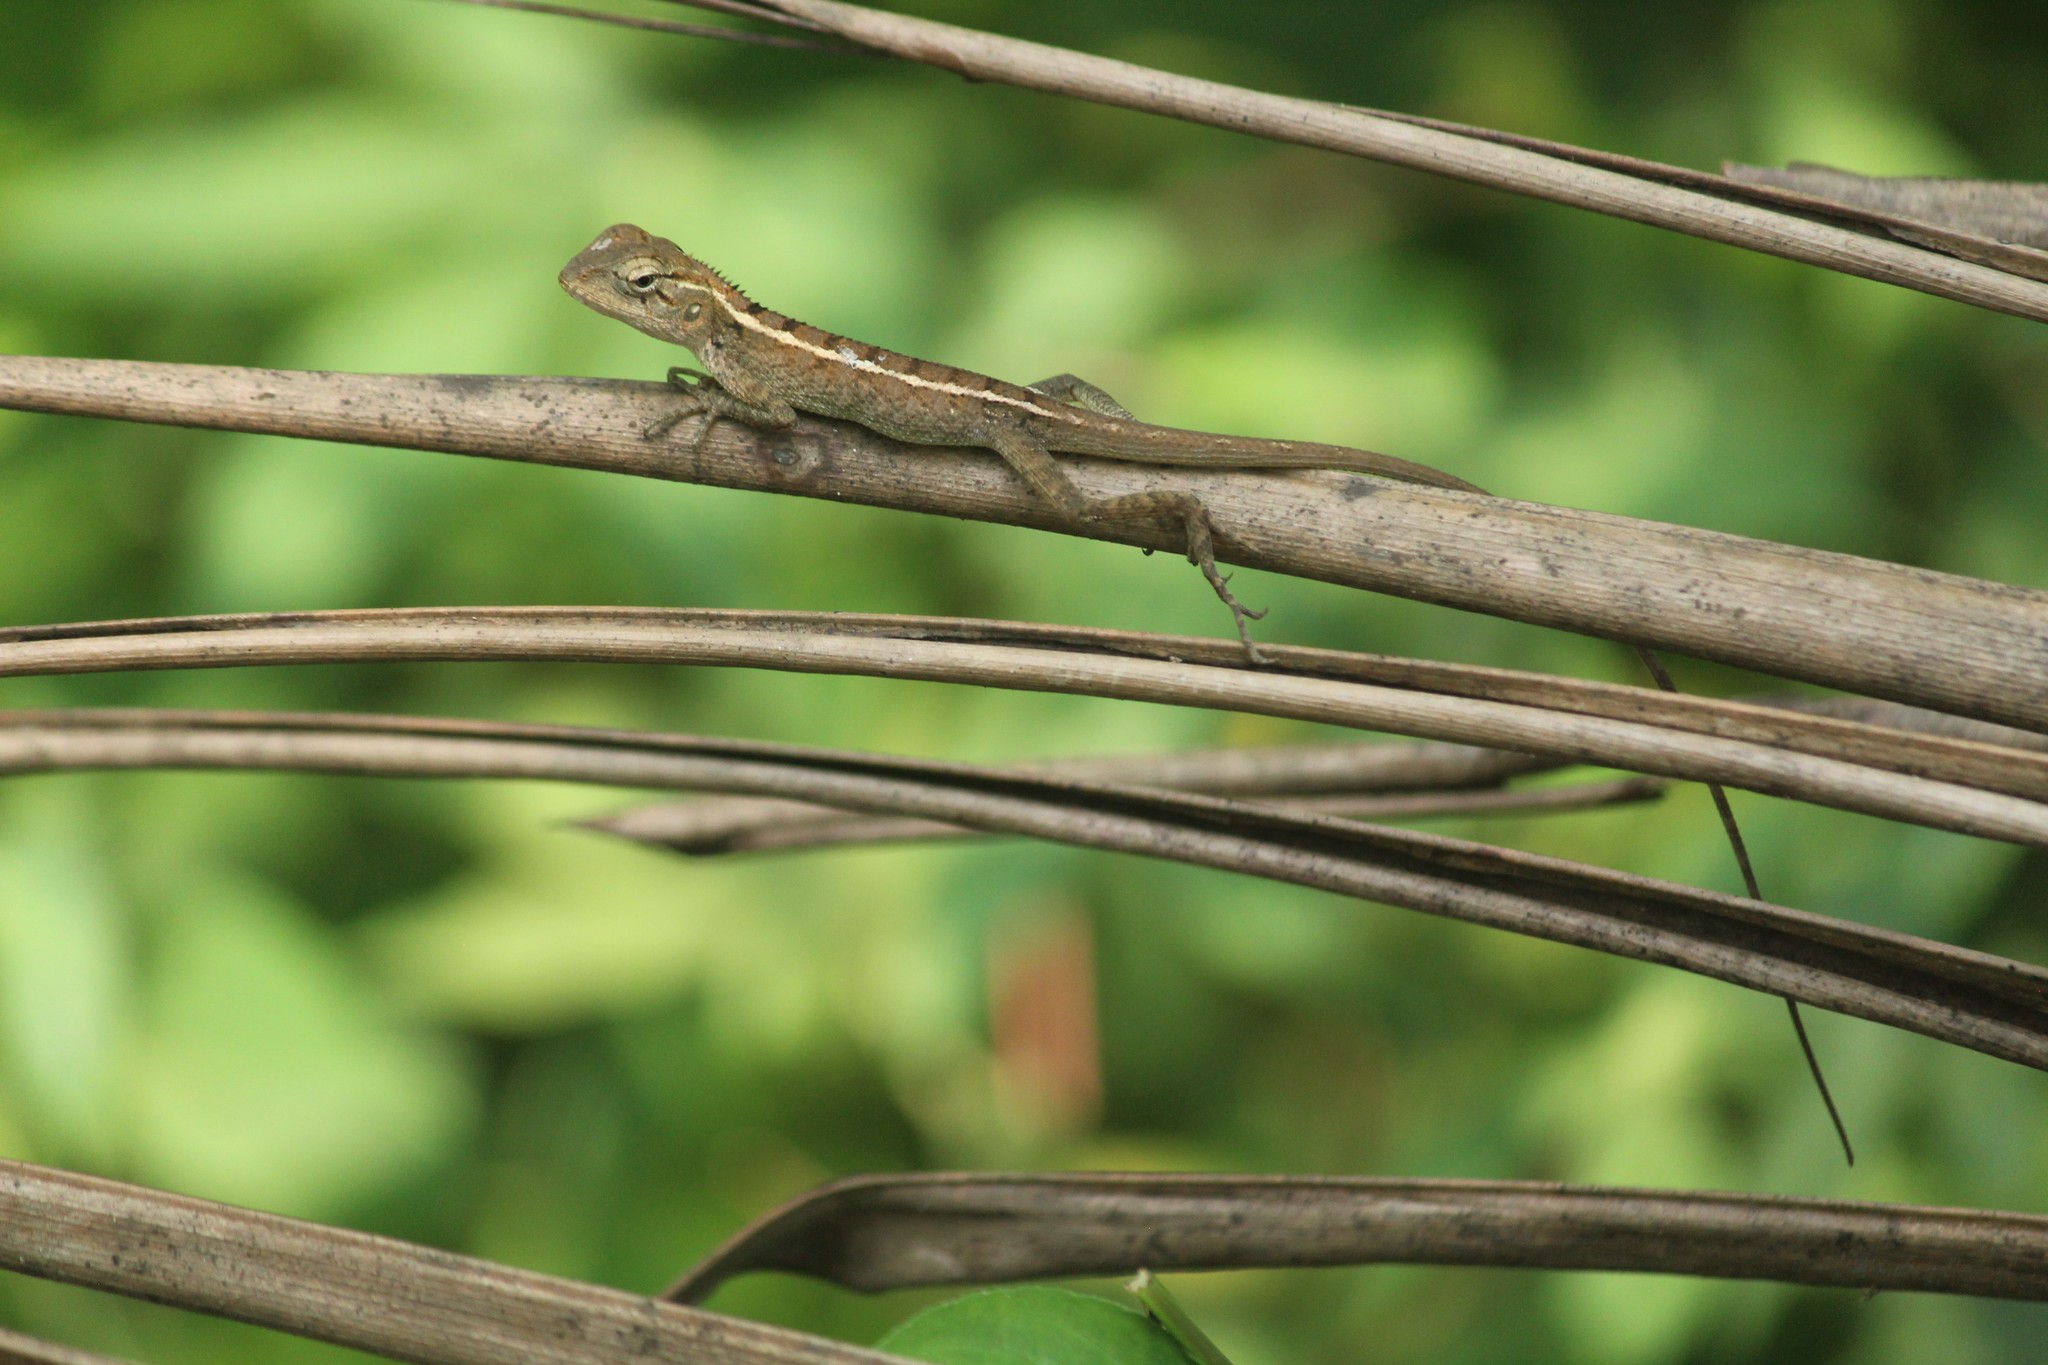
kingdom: Animalia
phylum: Chordata
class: Squamata
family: Agamidae
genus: Calotes
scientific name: Calotes versicolor
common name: Oriental garden lizard
